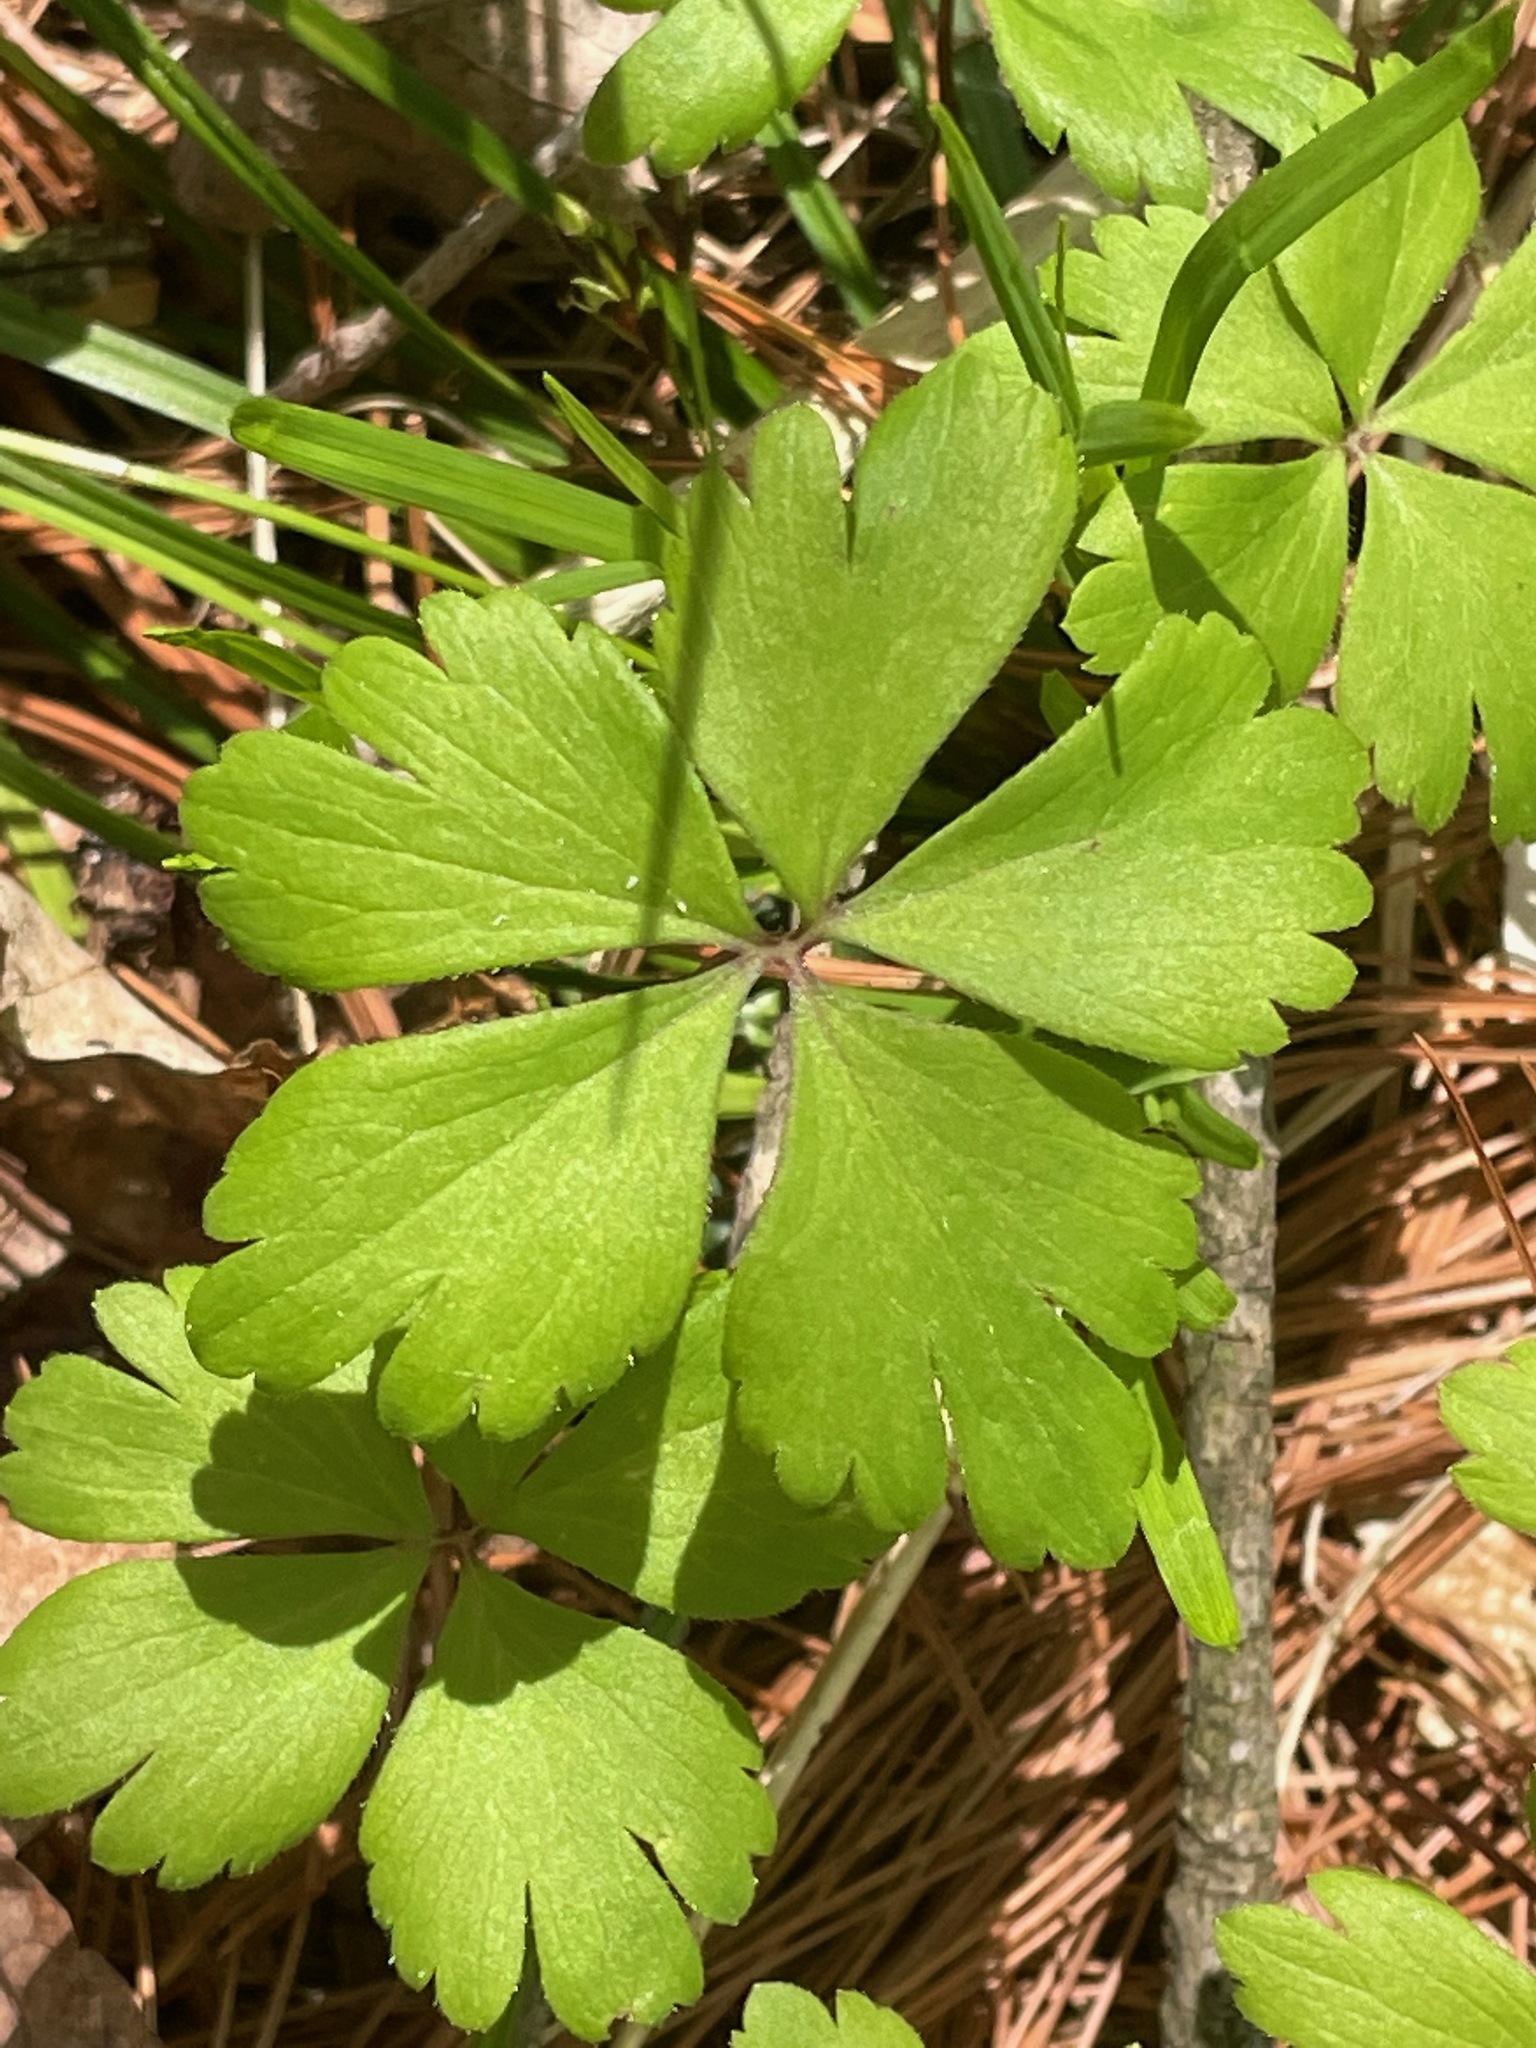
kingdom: Plantae
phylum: Tracheophyta
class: Magnoliopsida
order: Ranunculales
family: Ranunculaceae
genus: Anemone
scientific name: Anemone quinquefolia
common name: Wood anemone
